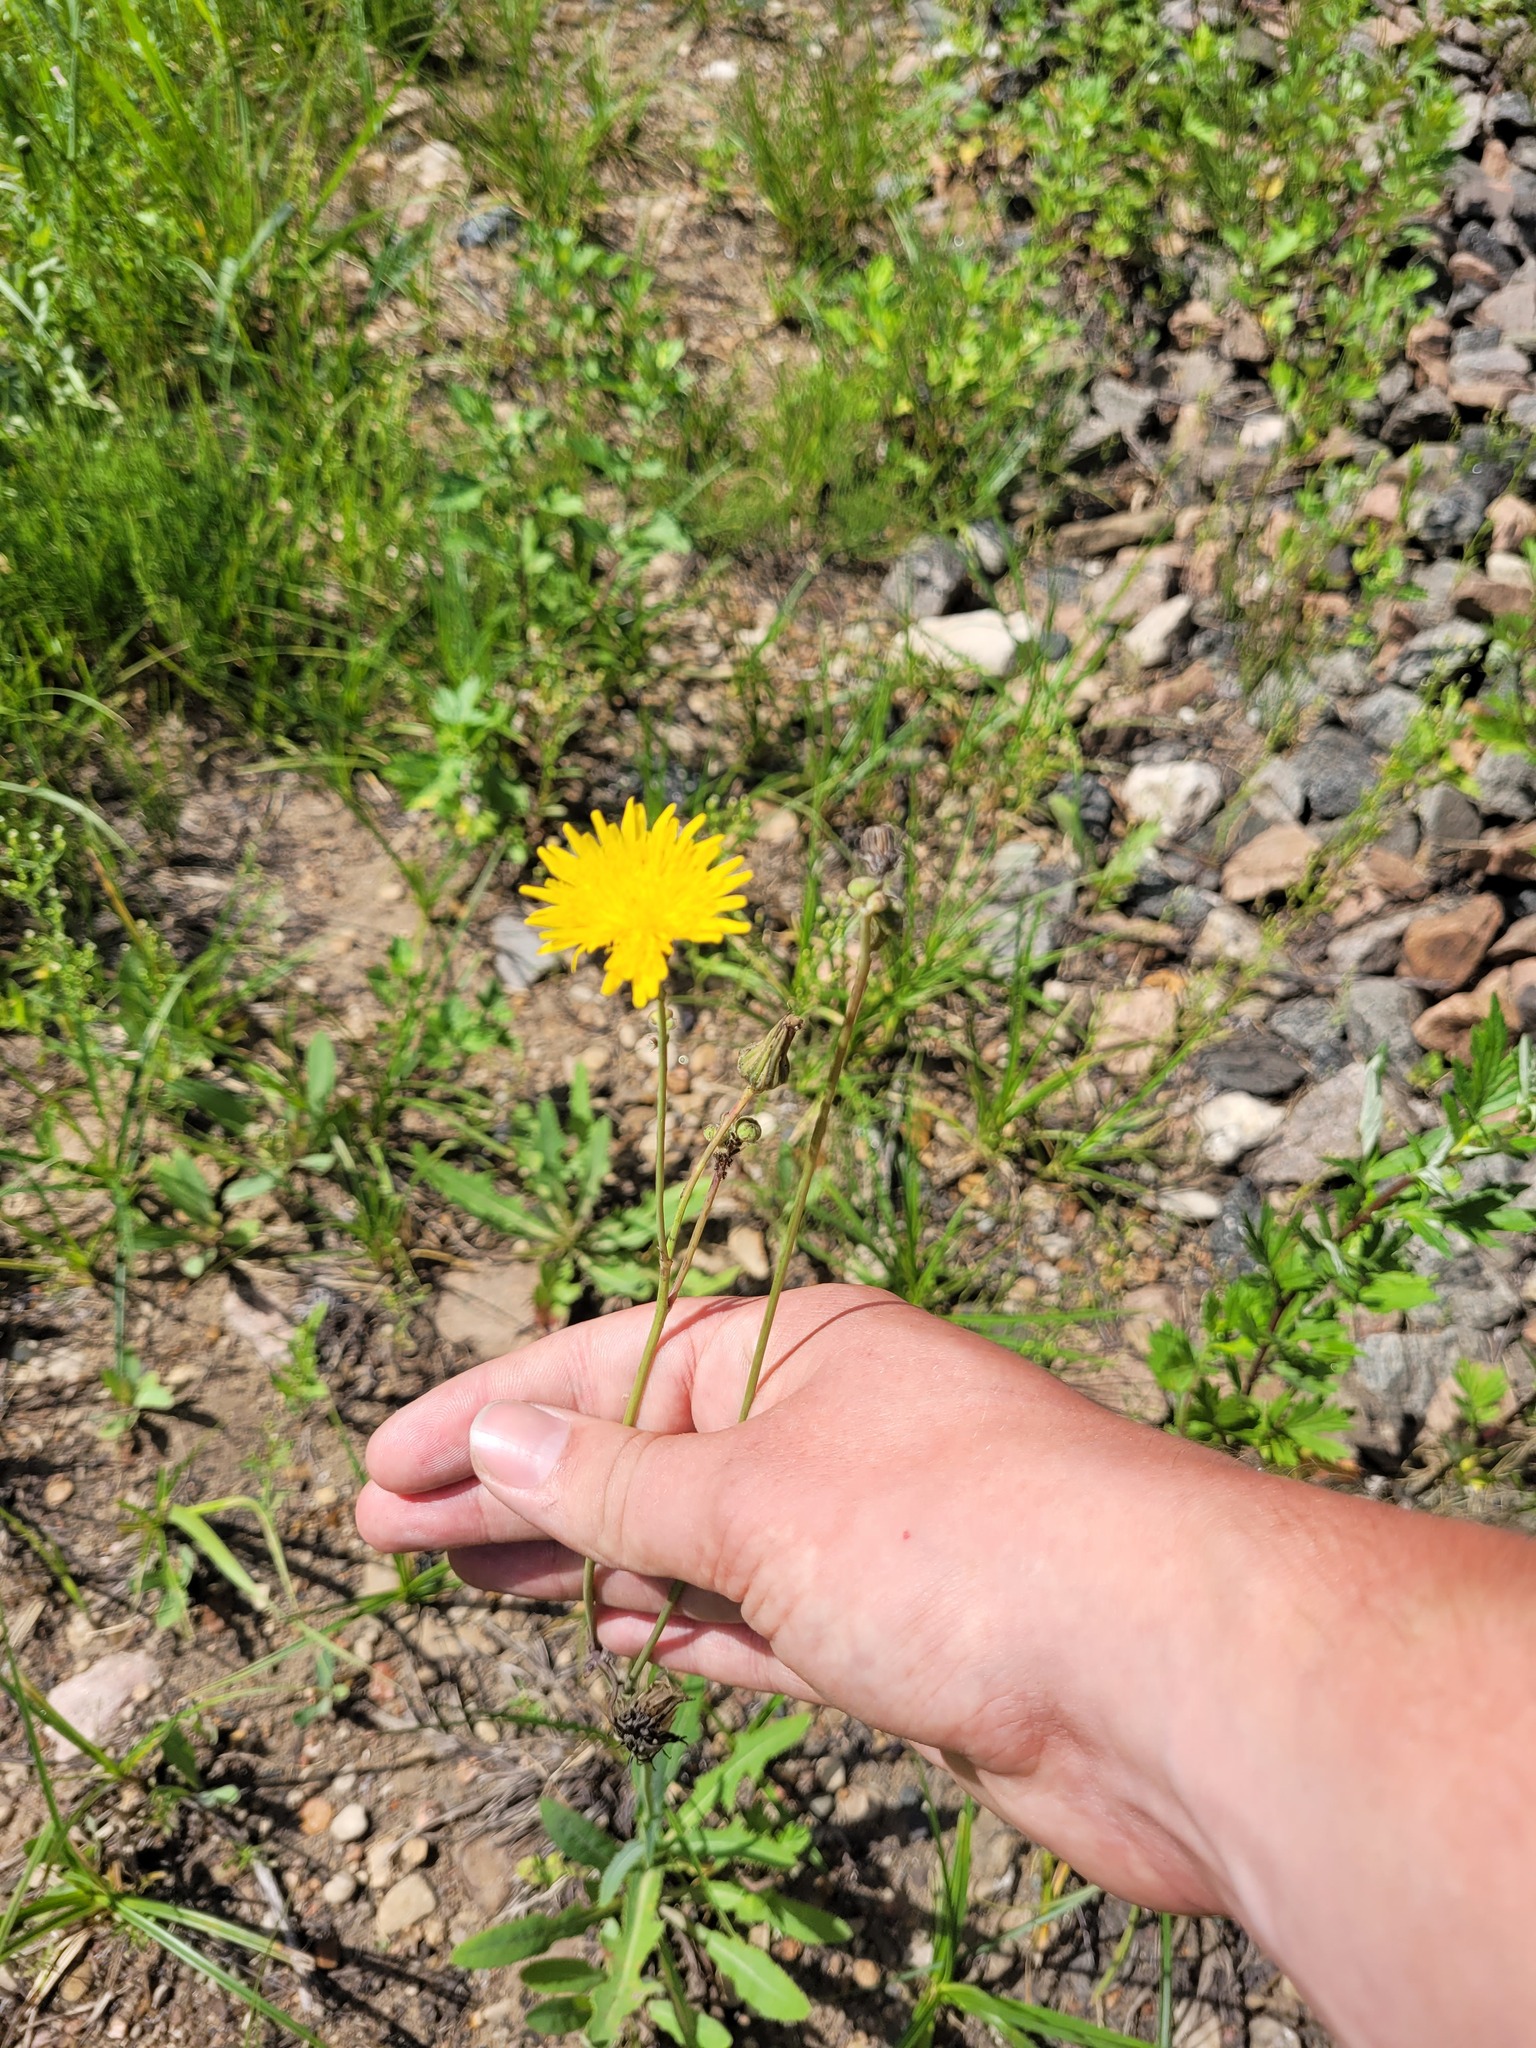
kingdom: Plantae
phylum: Tracheophyta
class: Magnoliopsida
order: Asterales
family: Asteraceae
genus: Sonchus
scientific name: Sonchus arvensis
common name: Perennial sow-thistle
